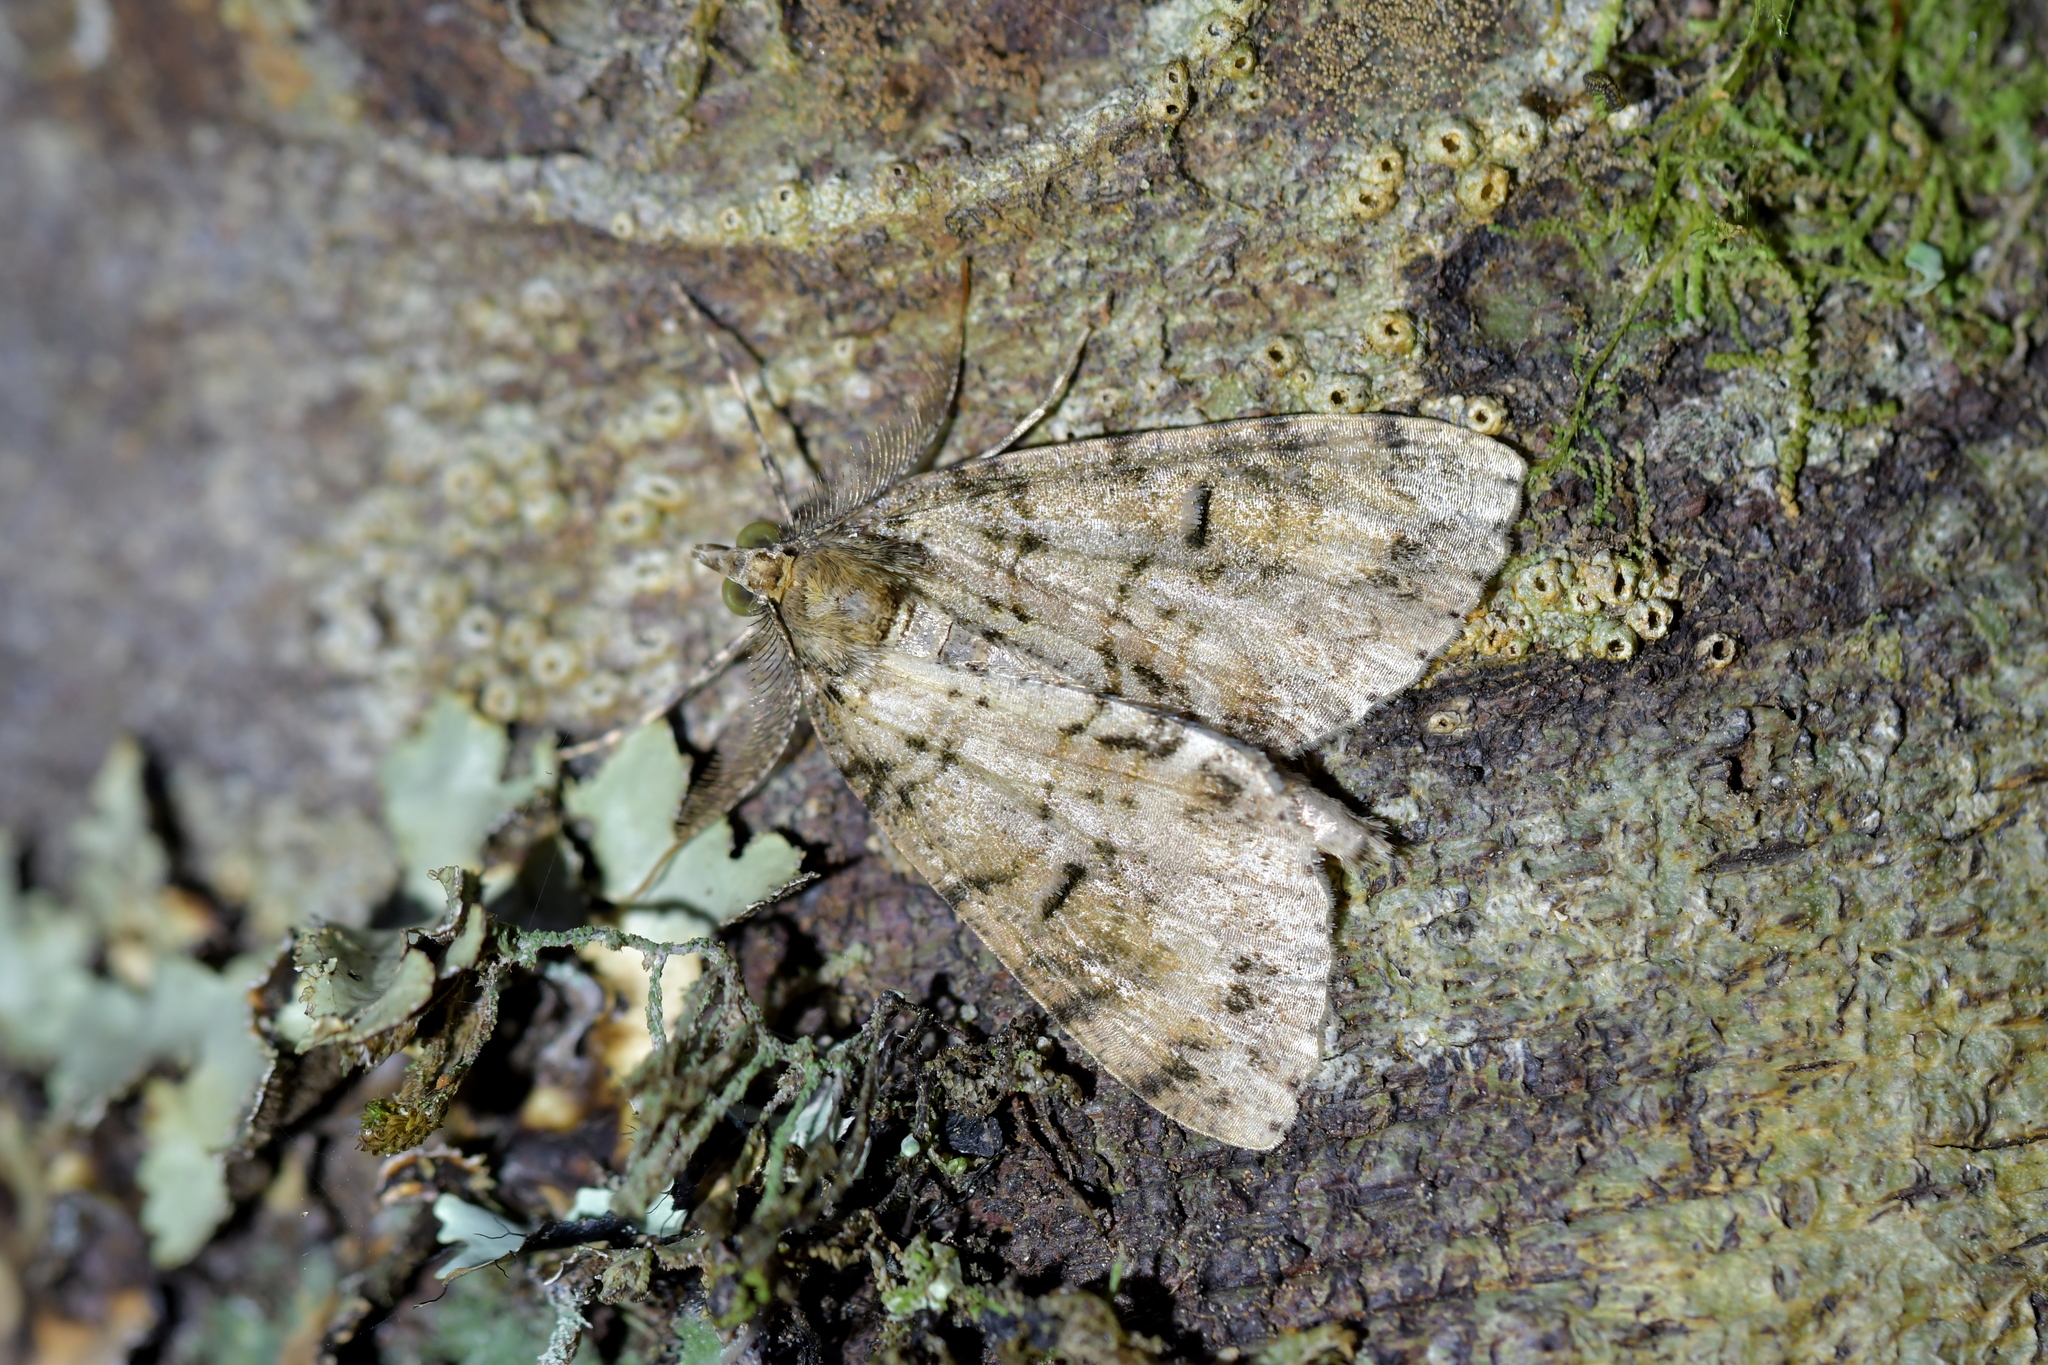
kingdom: Animalia
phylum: Arthropoda
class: Insecta
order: Lepidoptera
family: Geometridae
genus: Pseudocoremia
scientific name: Pseudocoremia suavis
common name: Common forest looper
